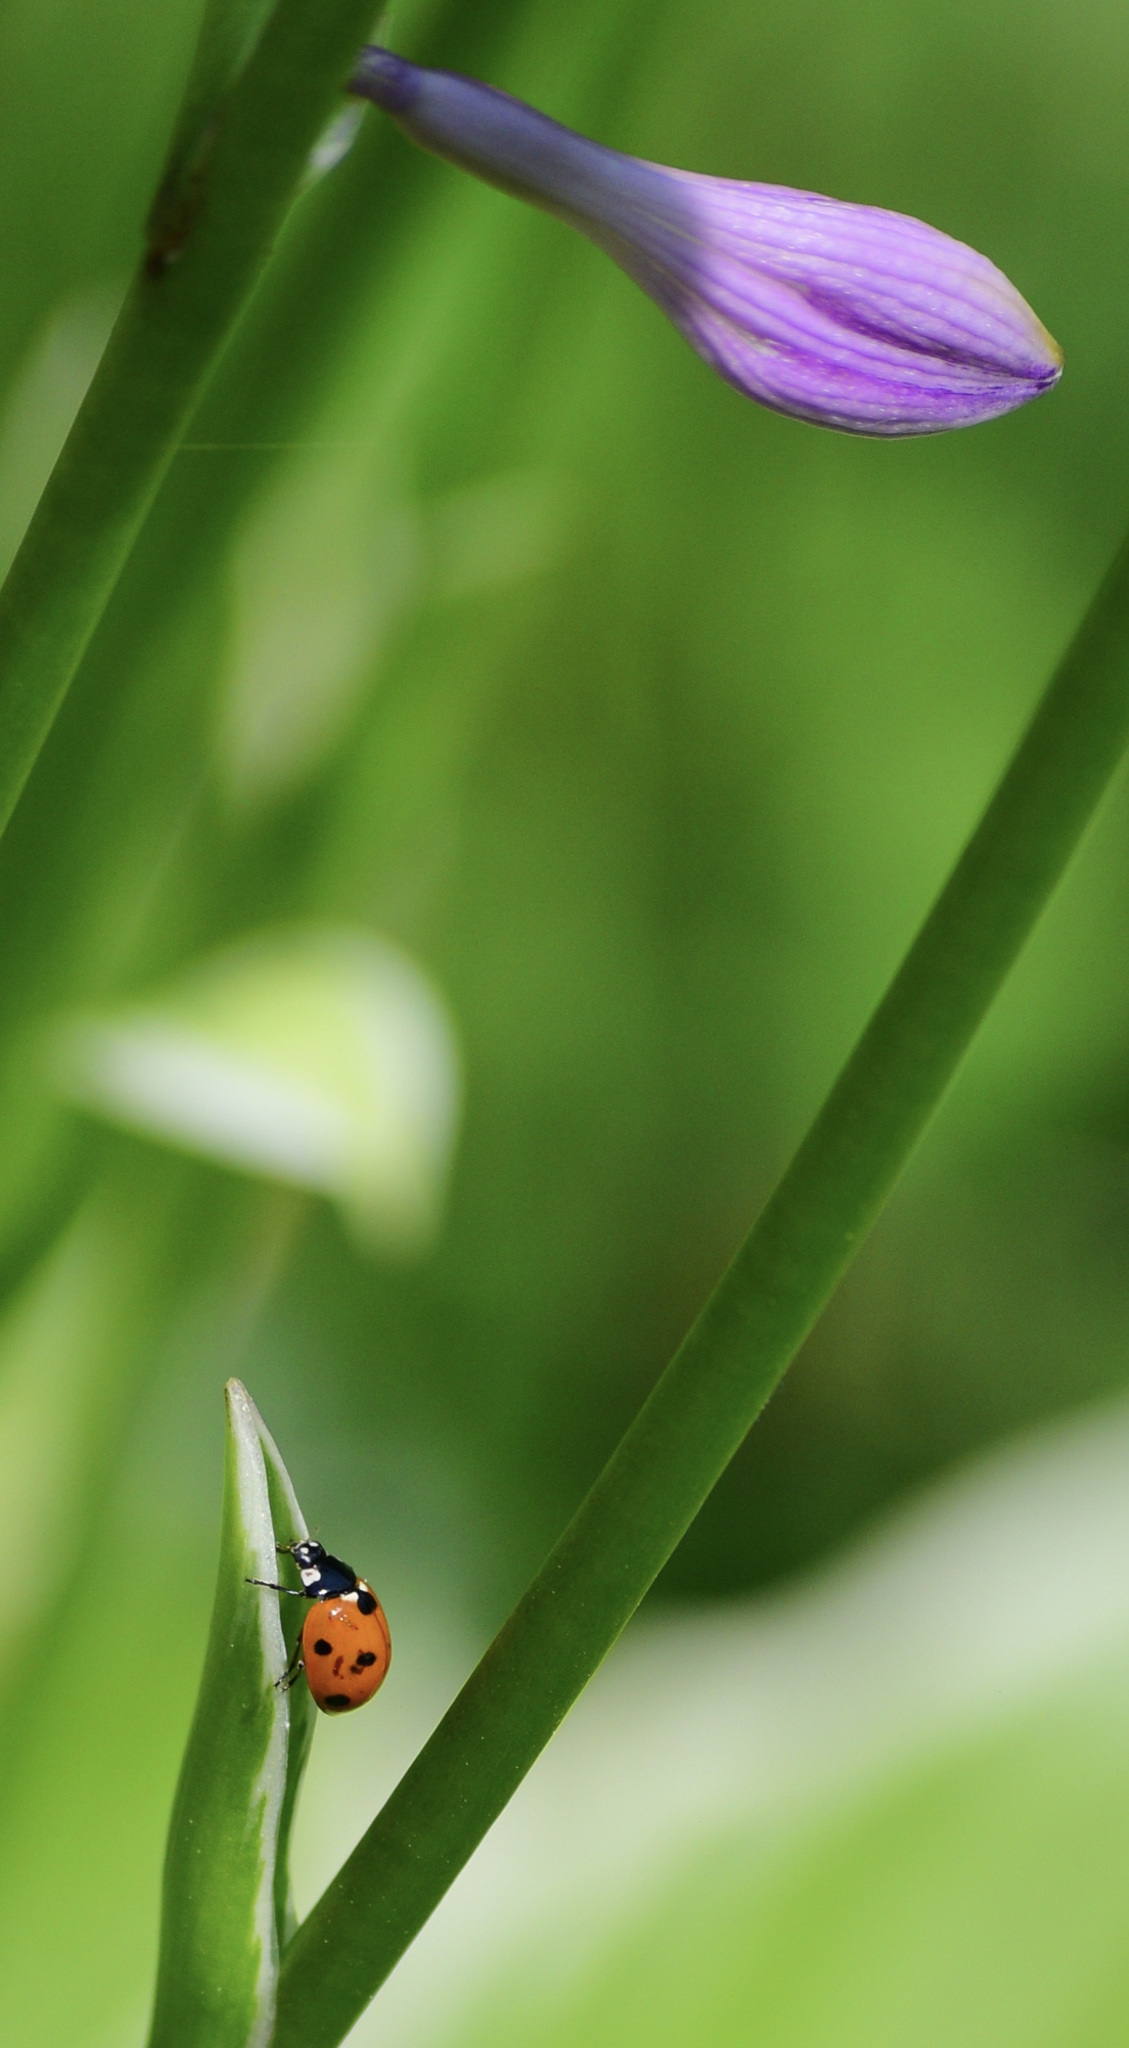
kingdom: Animalia
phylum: Arthropoda
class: Insecta
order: Coleoptera
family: Coccinellidae
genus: Coccinella
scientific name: Coccinella septempunctata
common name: Sevenspotted lady beetle
